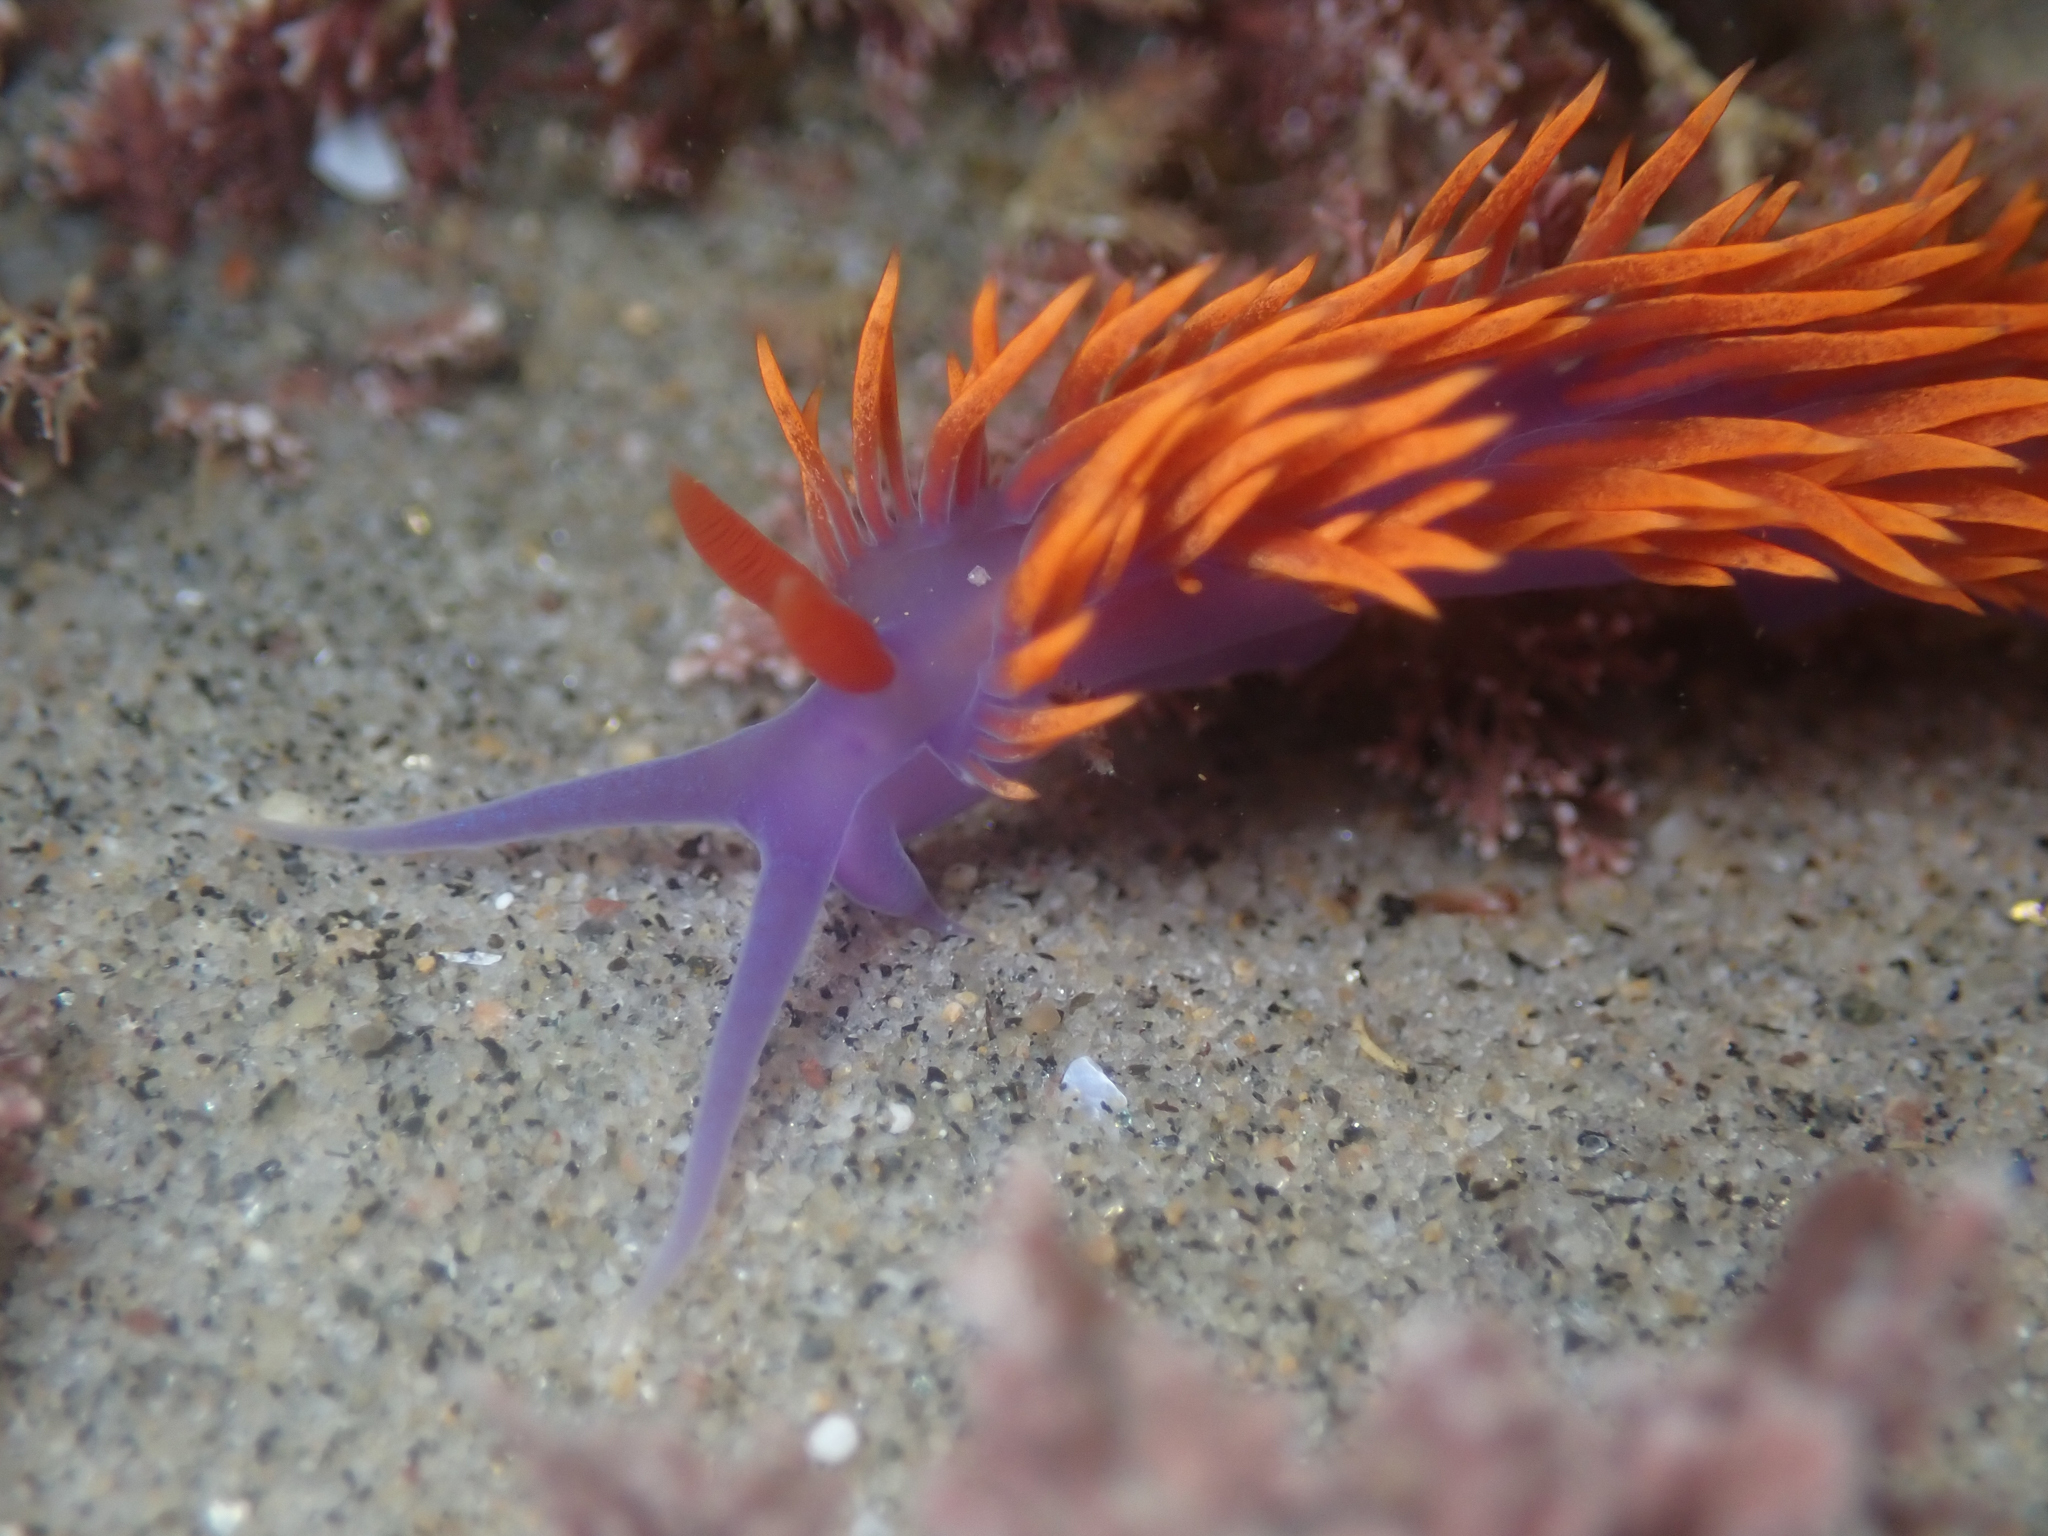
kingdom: Animalia
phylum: Mollusca
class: Gastropoda
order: Nudibranchia
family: Flabellinopsidae
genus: Flabellinopsis
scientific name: Flabellinopsis iodinea
